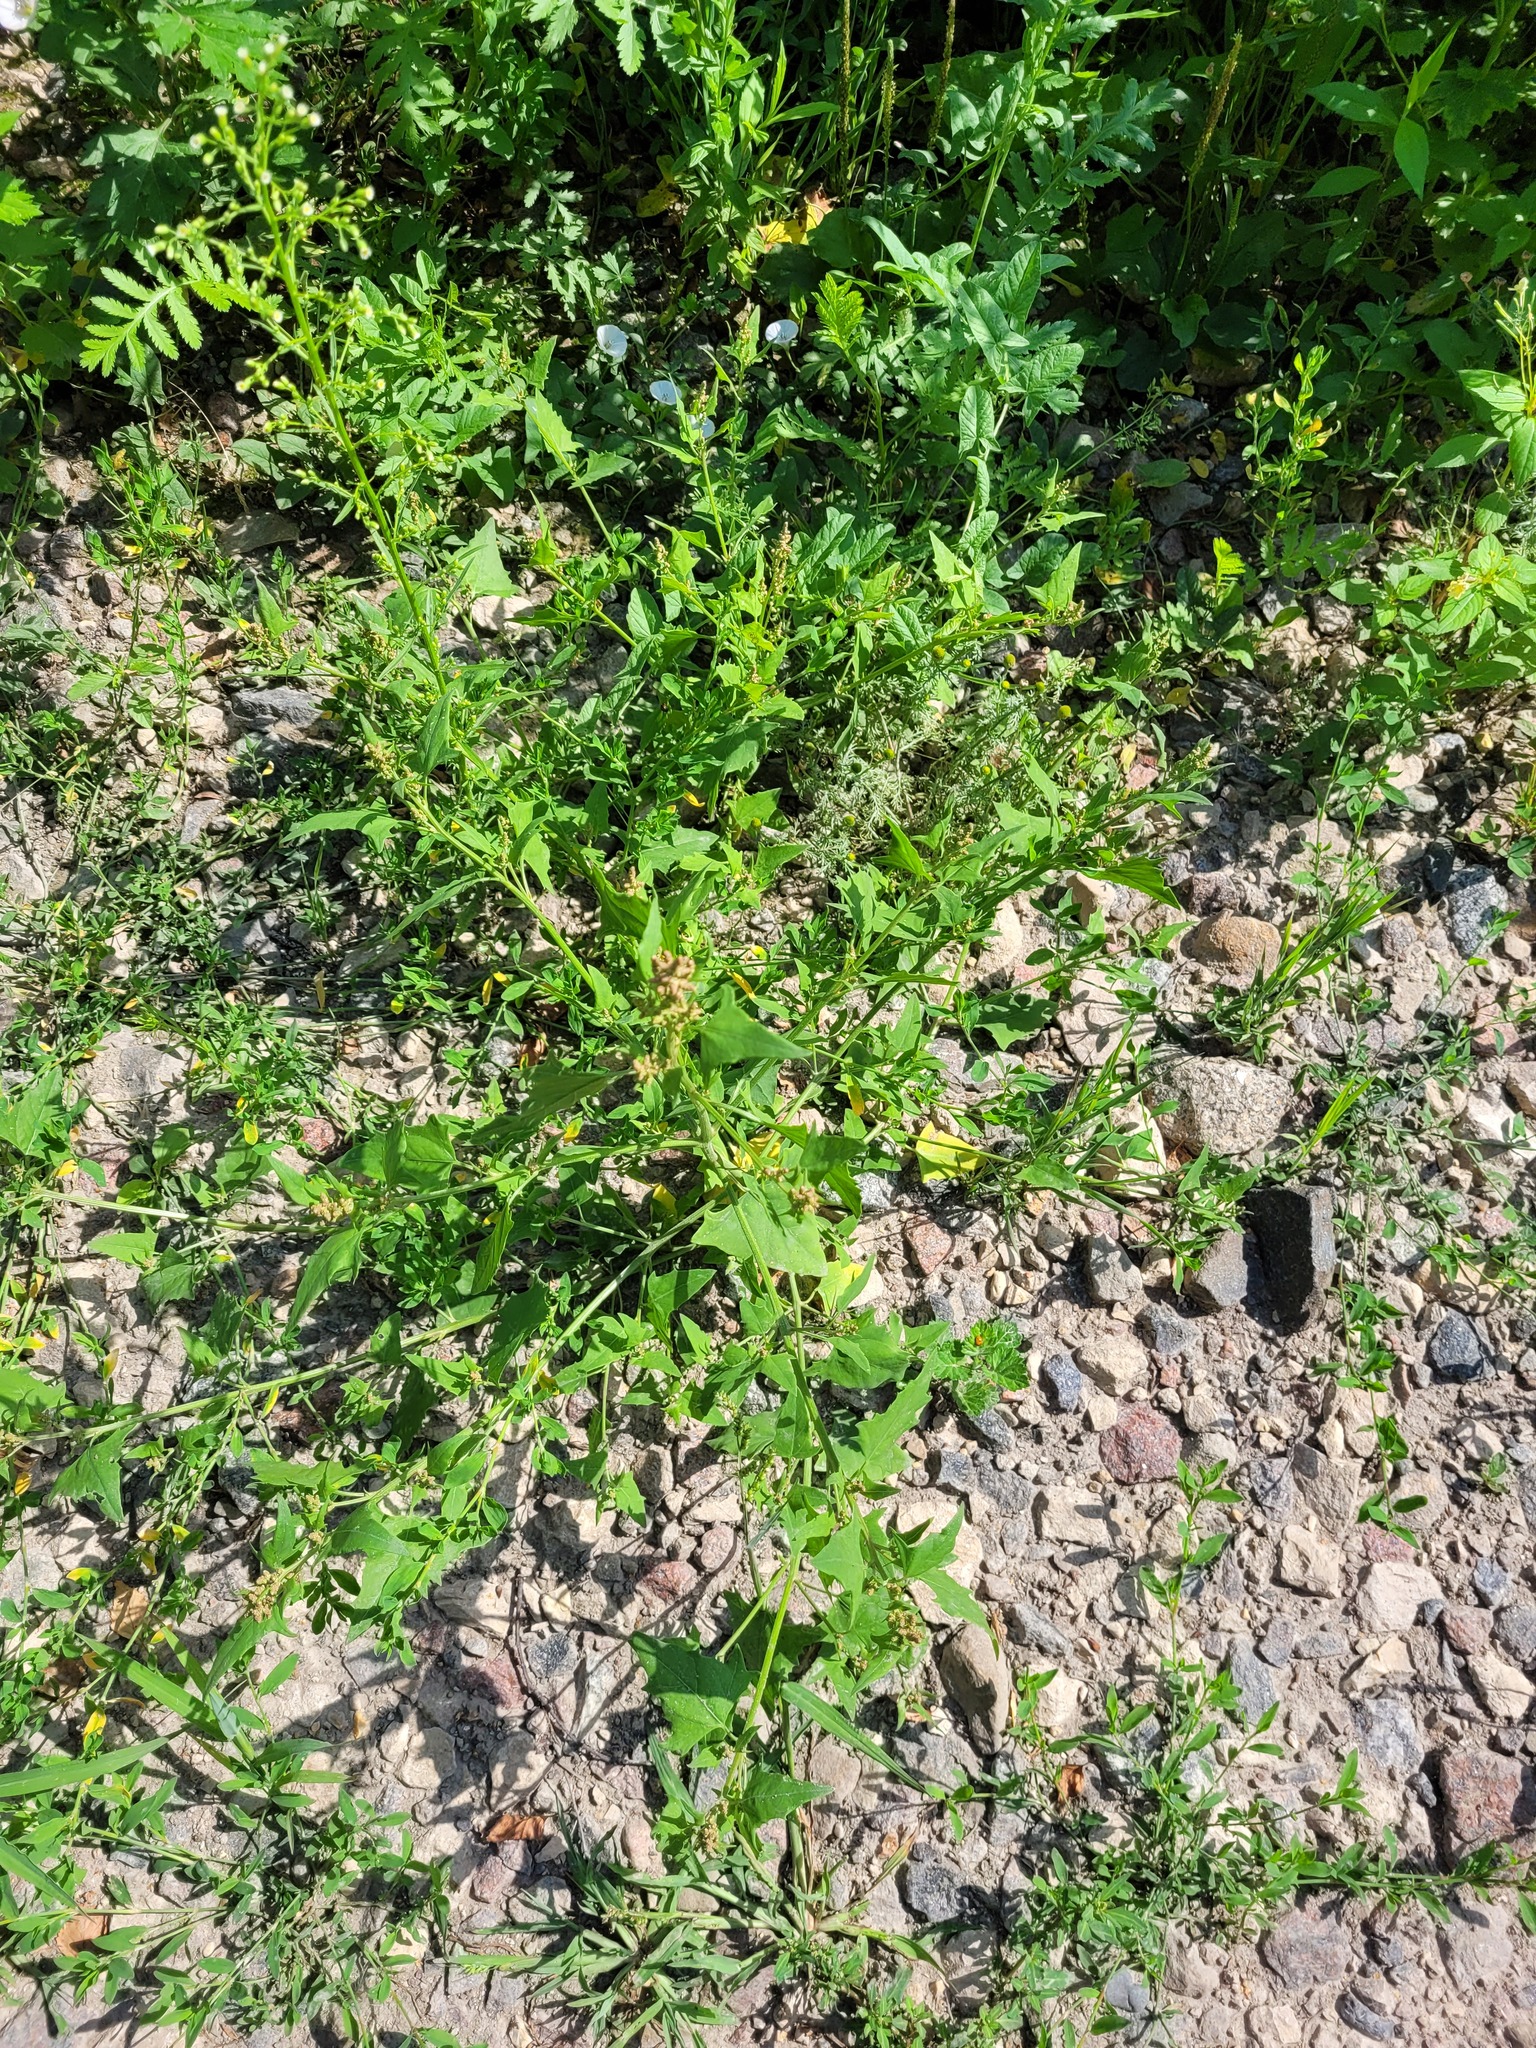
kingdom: Plantae
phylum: Tracheophyta
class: Magnoliopsida
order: Caryophyllales
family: Amaranthaceae
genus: Atriplex
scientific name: Atriplex prostrata
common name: Spear-leaved orache
